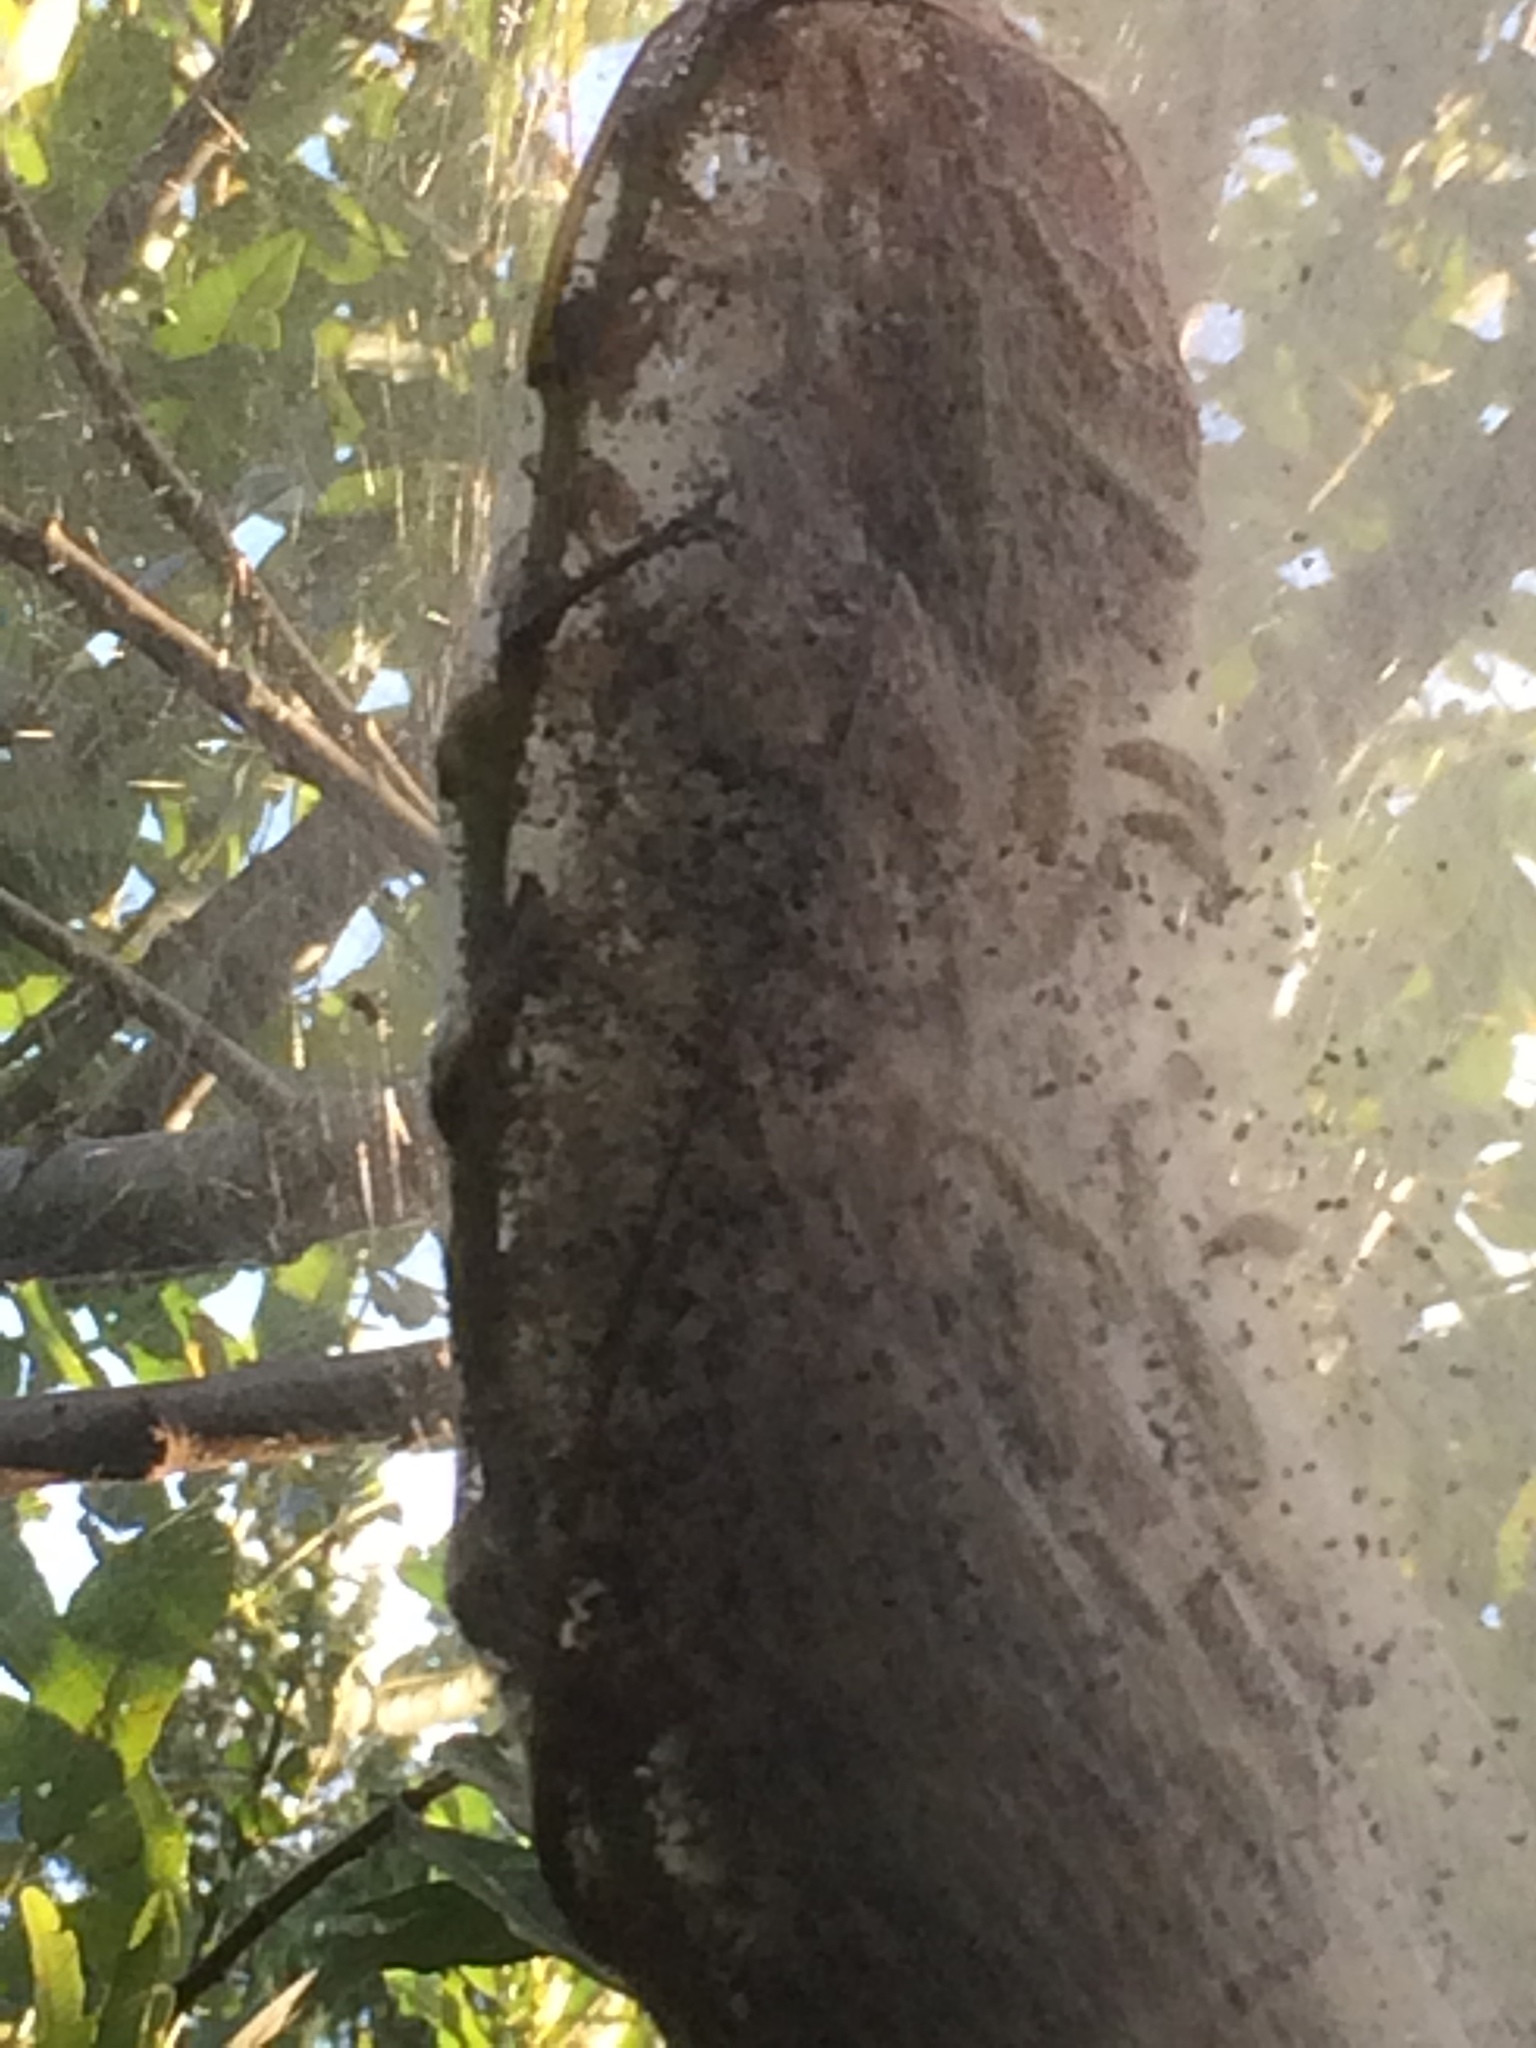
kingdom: Animalia
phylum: Arthropoda
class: Insecta
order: Lepidoptera
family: Erebidae
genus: Hyphantria
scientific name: Hyphantria cunea
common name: American white moth
